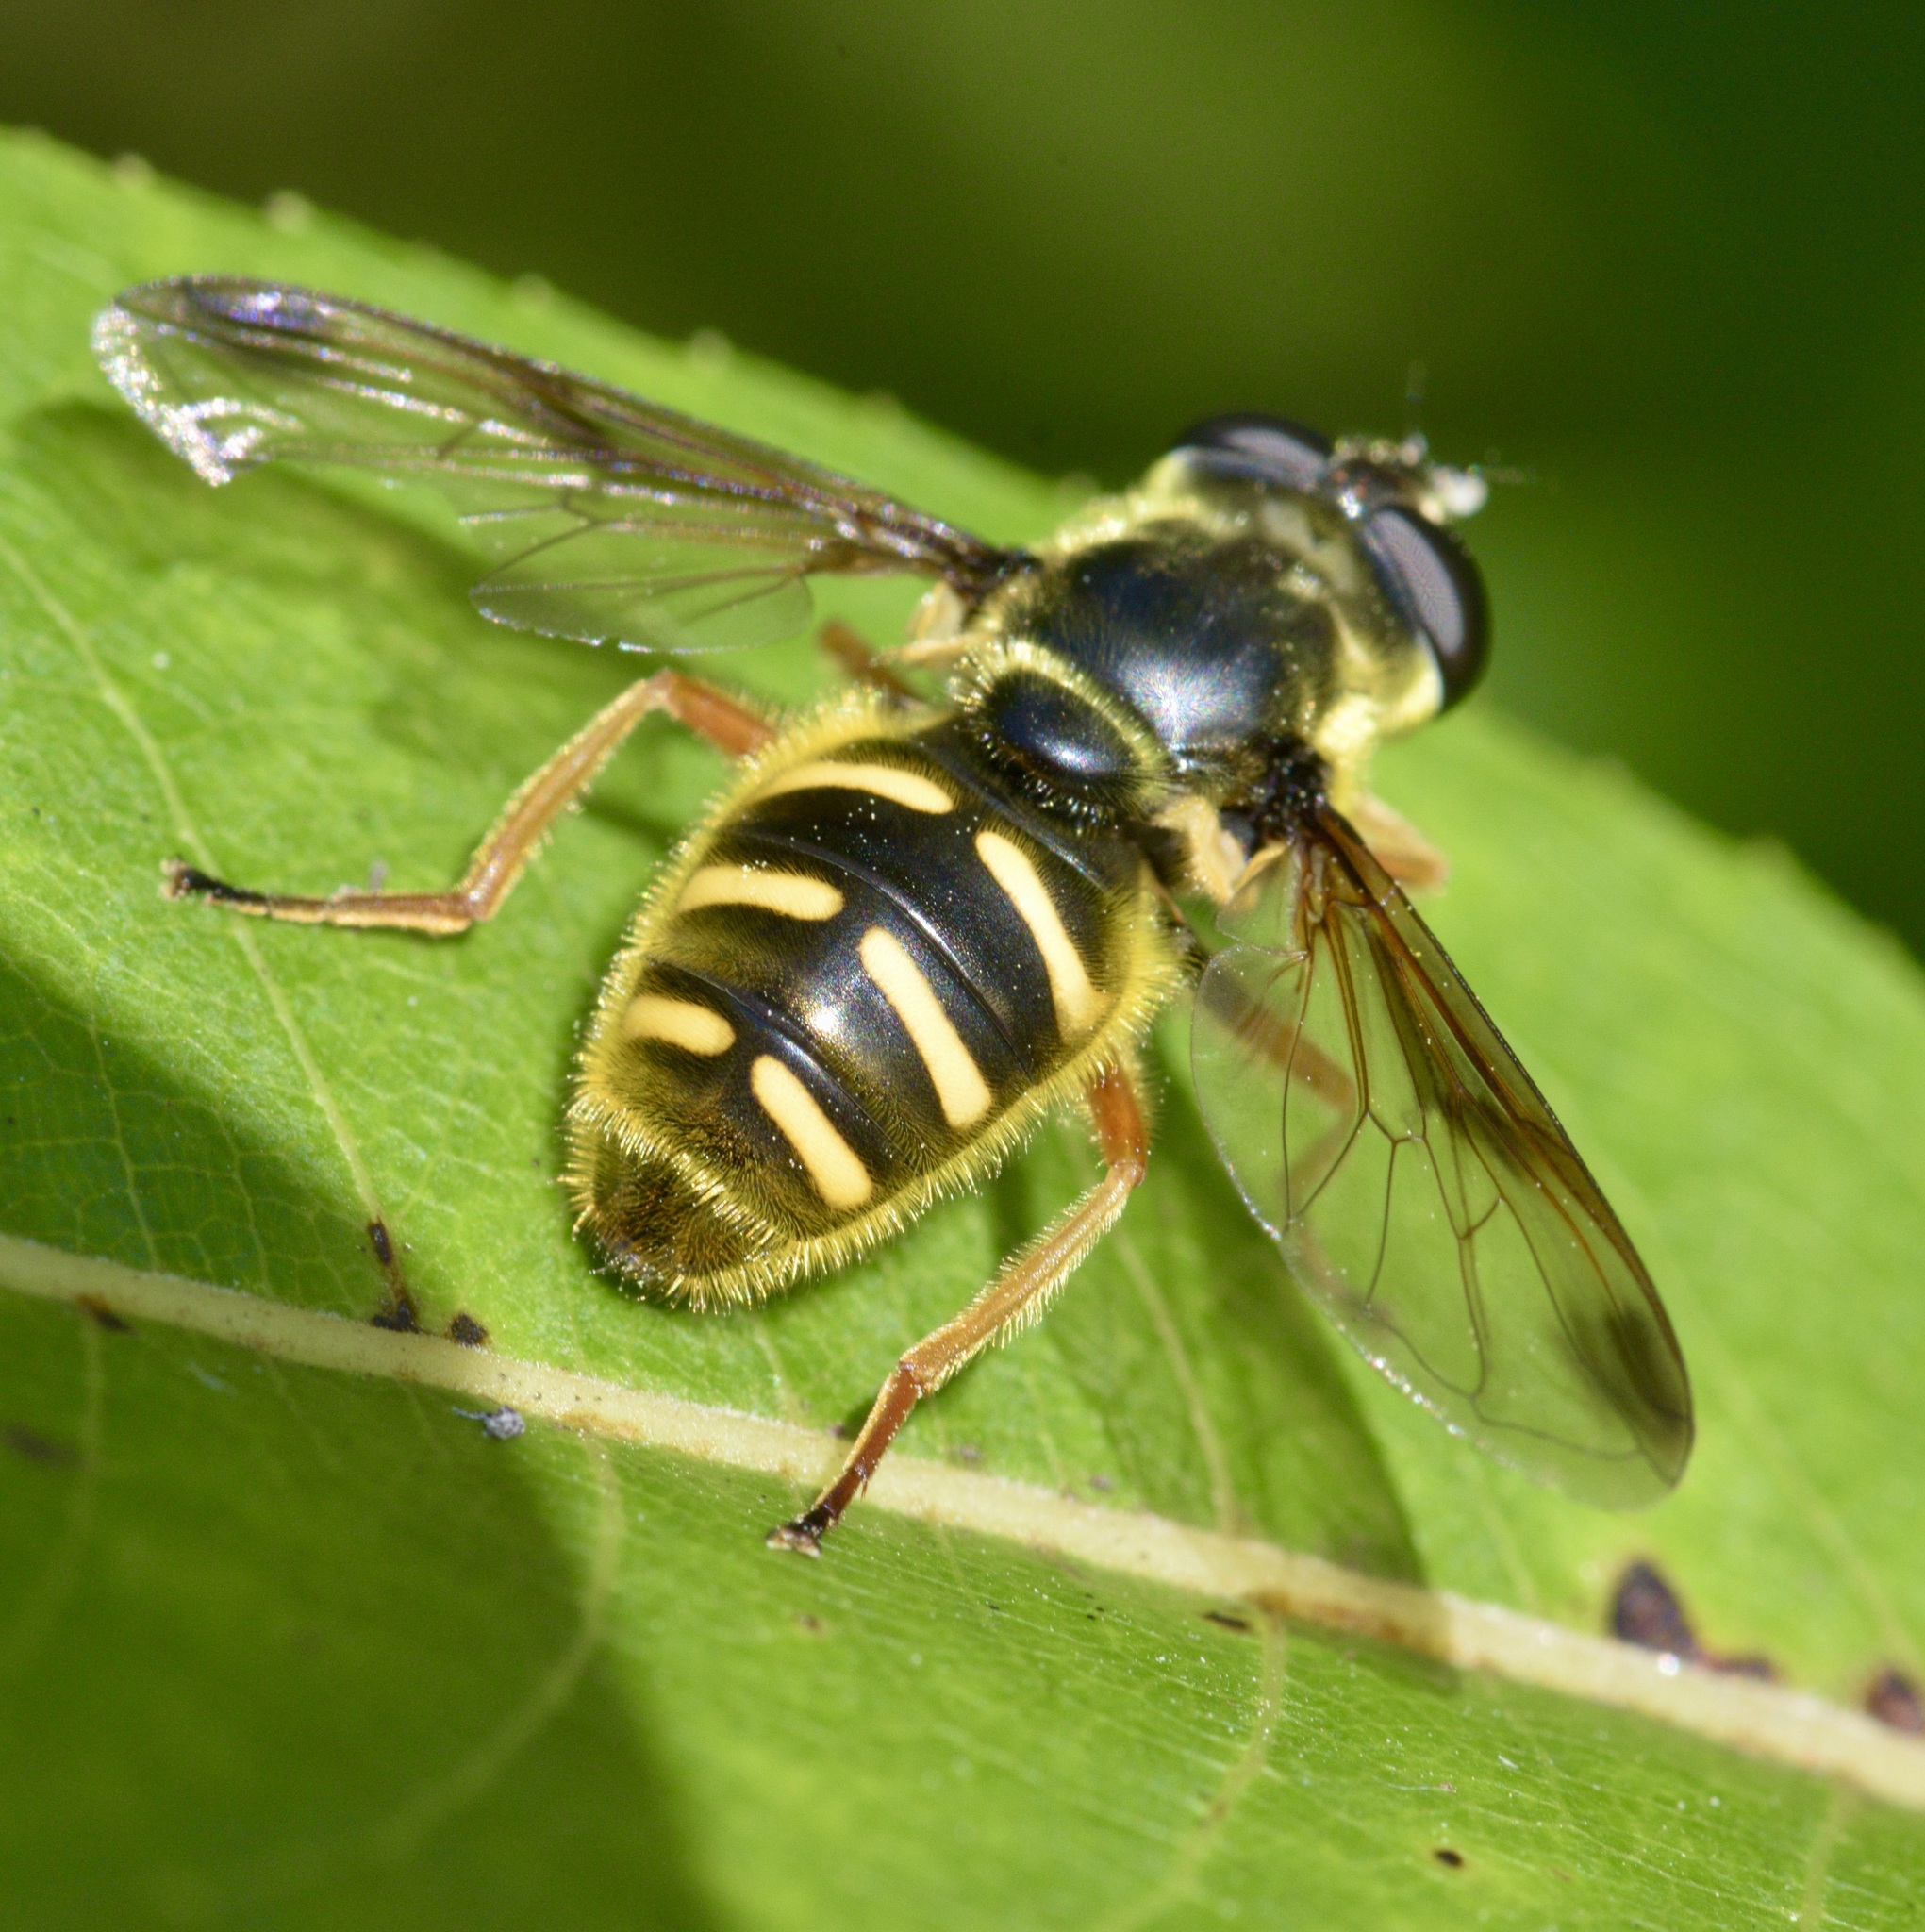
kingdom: Animalia
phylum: Arthropoda
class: Insecta
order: Diptera
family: Syrphidae
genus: Sericomyia
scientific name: Sericomyia chrysotoxoides
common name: Oblique-banded pond fly
